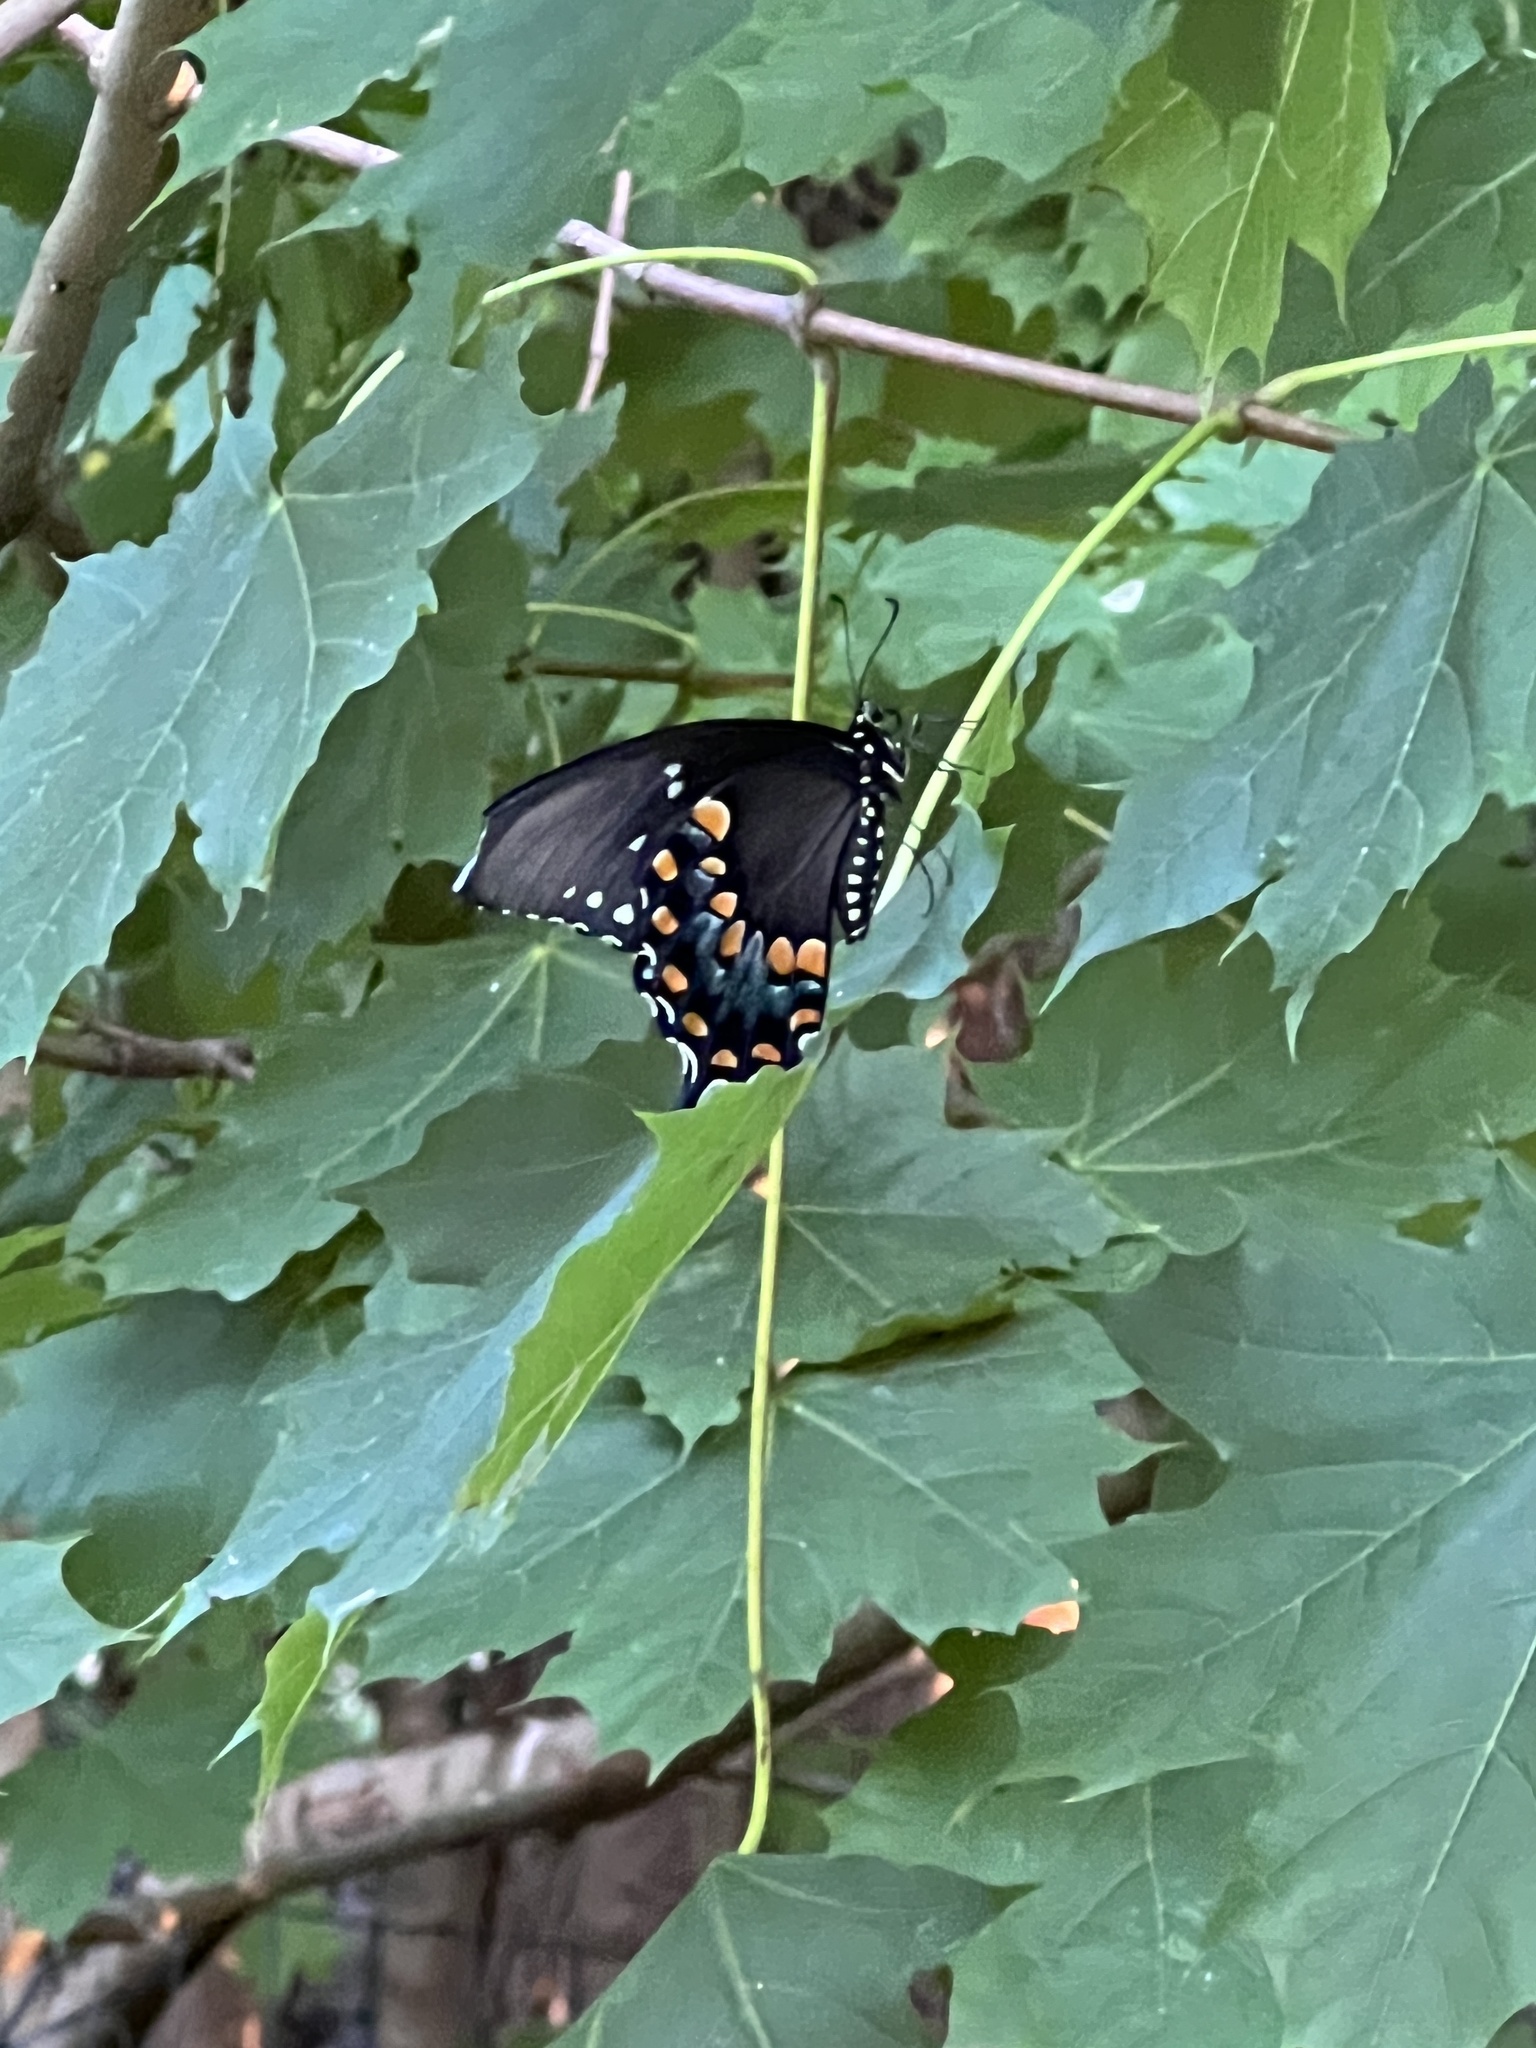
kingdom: Animalia
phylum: Arthropoda
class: Insecta
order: Lepidoptera
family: Papilionidae
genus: Papilio
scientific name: Papilio troilus
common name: Spicebush swallowtail
